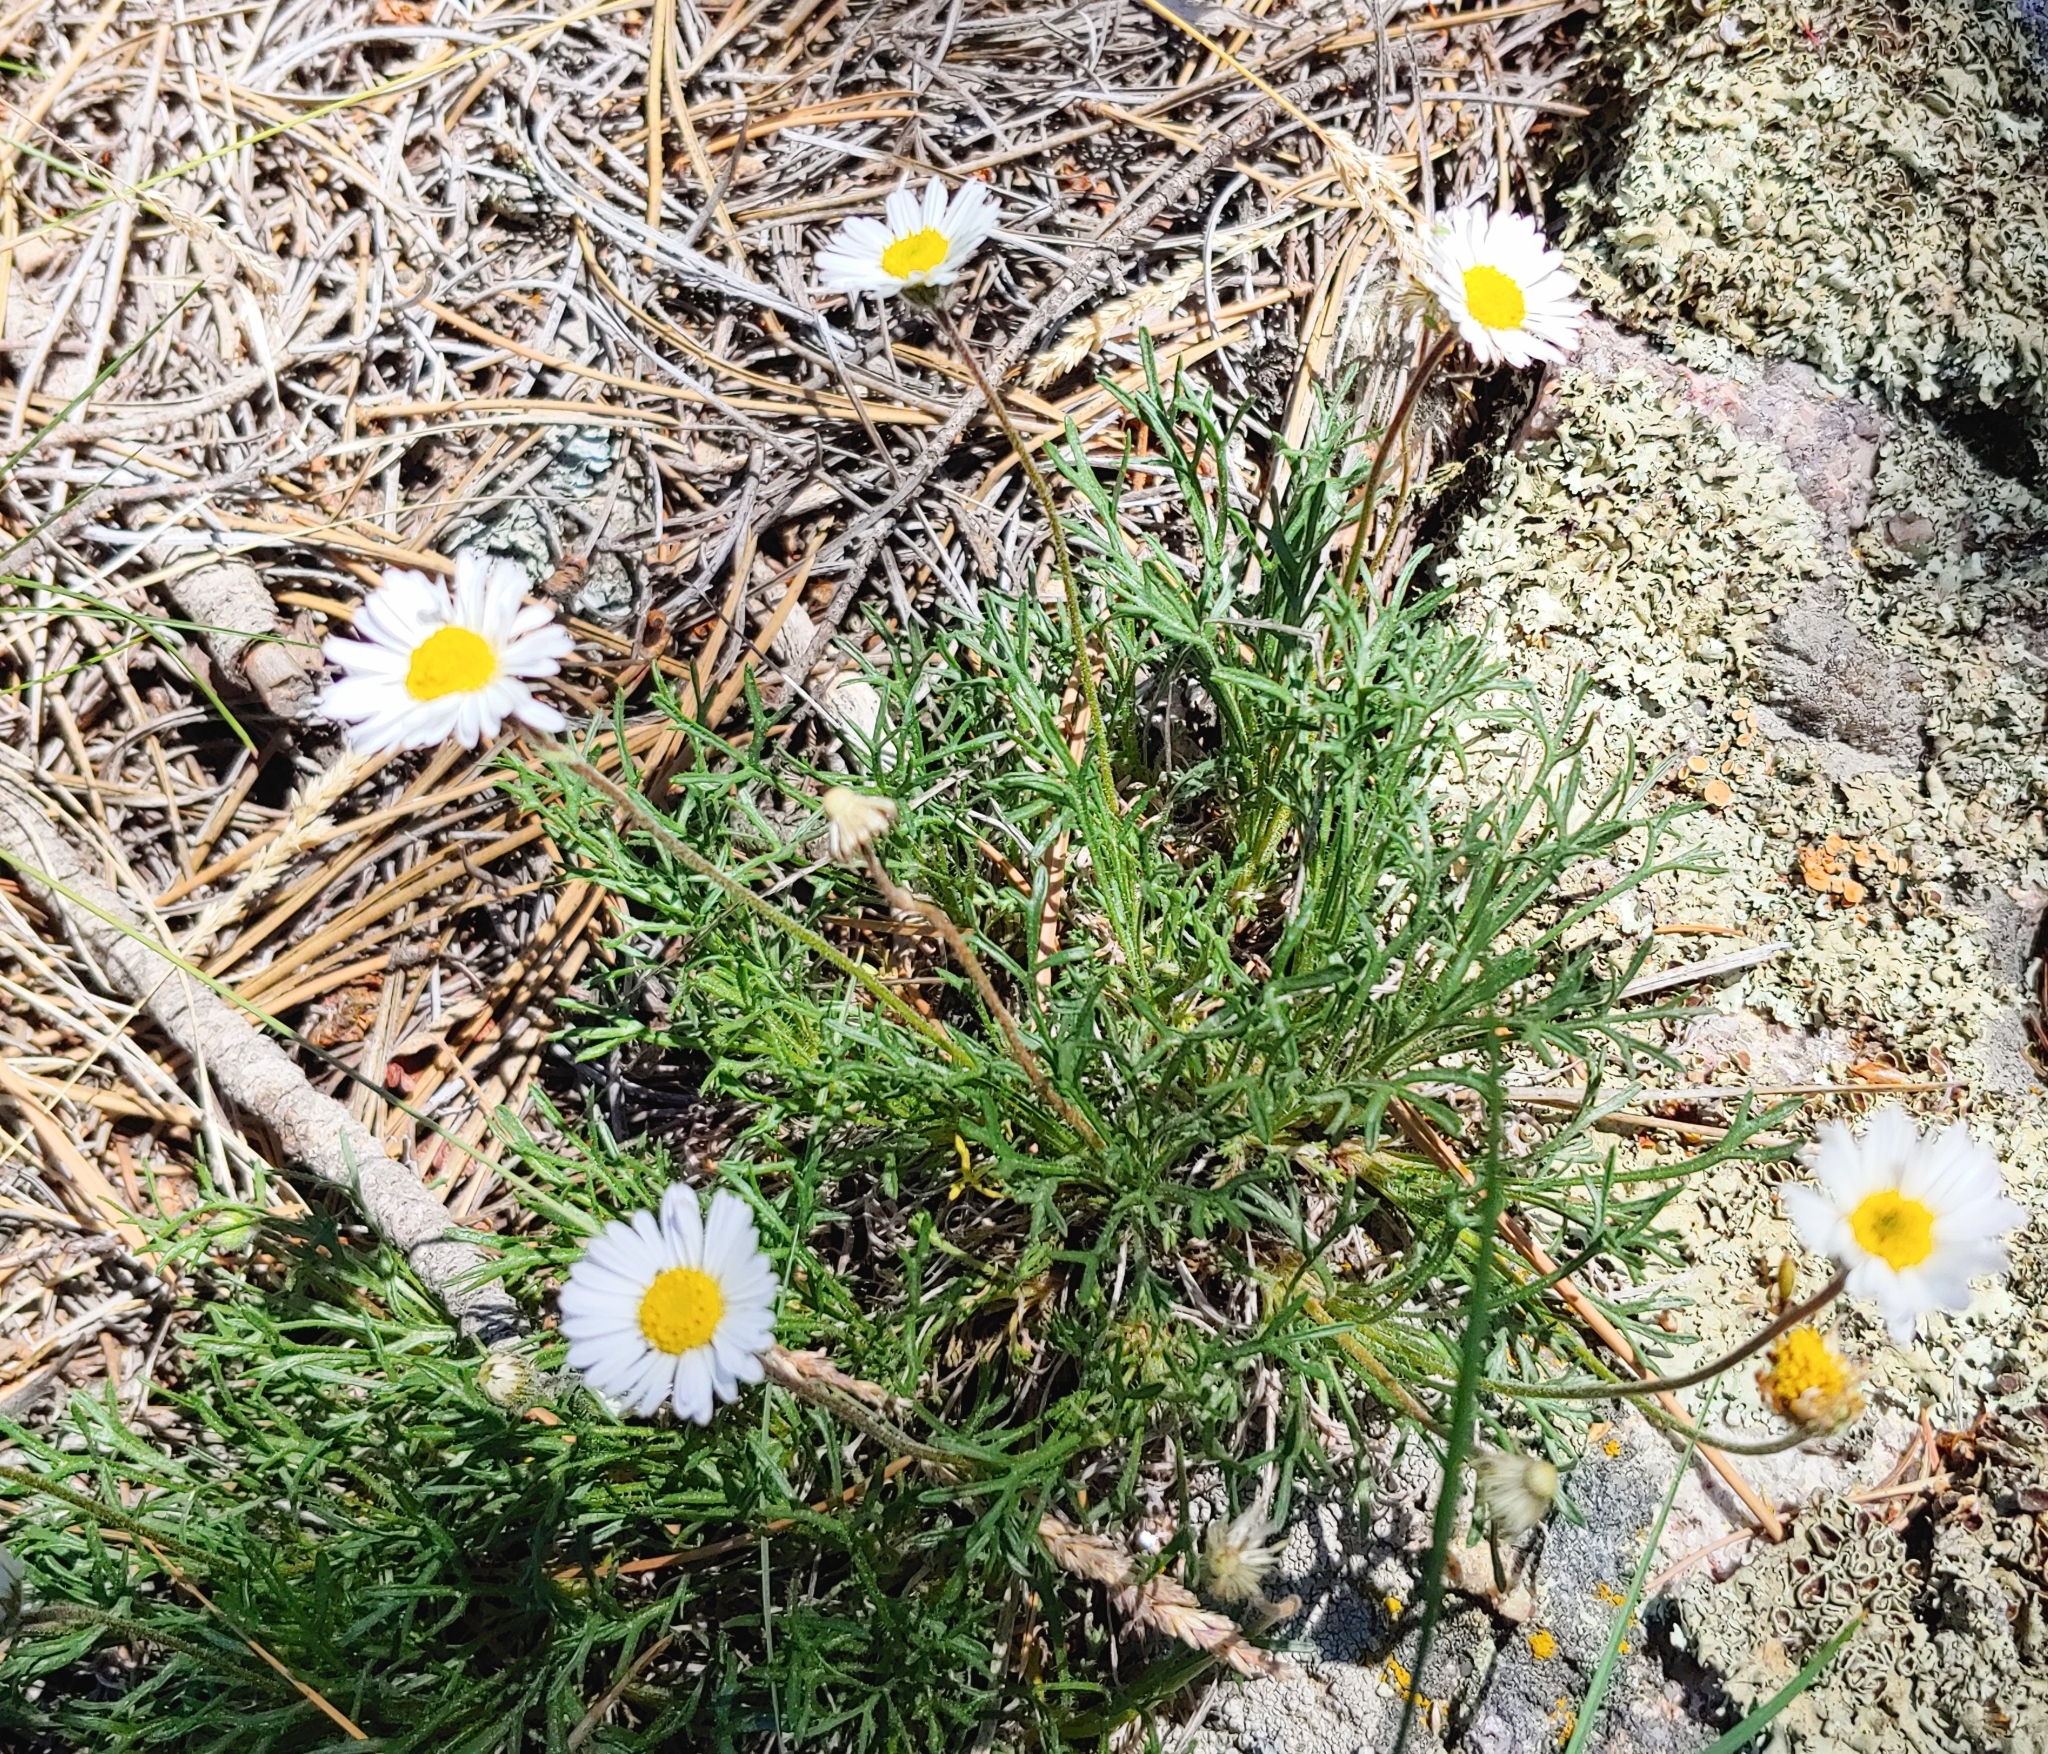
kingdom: Plantae
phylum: Tracheophyta
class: Magnoliopsida
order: Asterales
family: Asteraceae
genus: Erigeron
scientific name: Erigeron compositus
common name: Dwarf mountain fleabane
